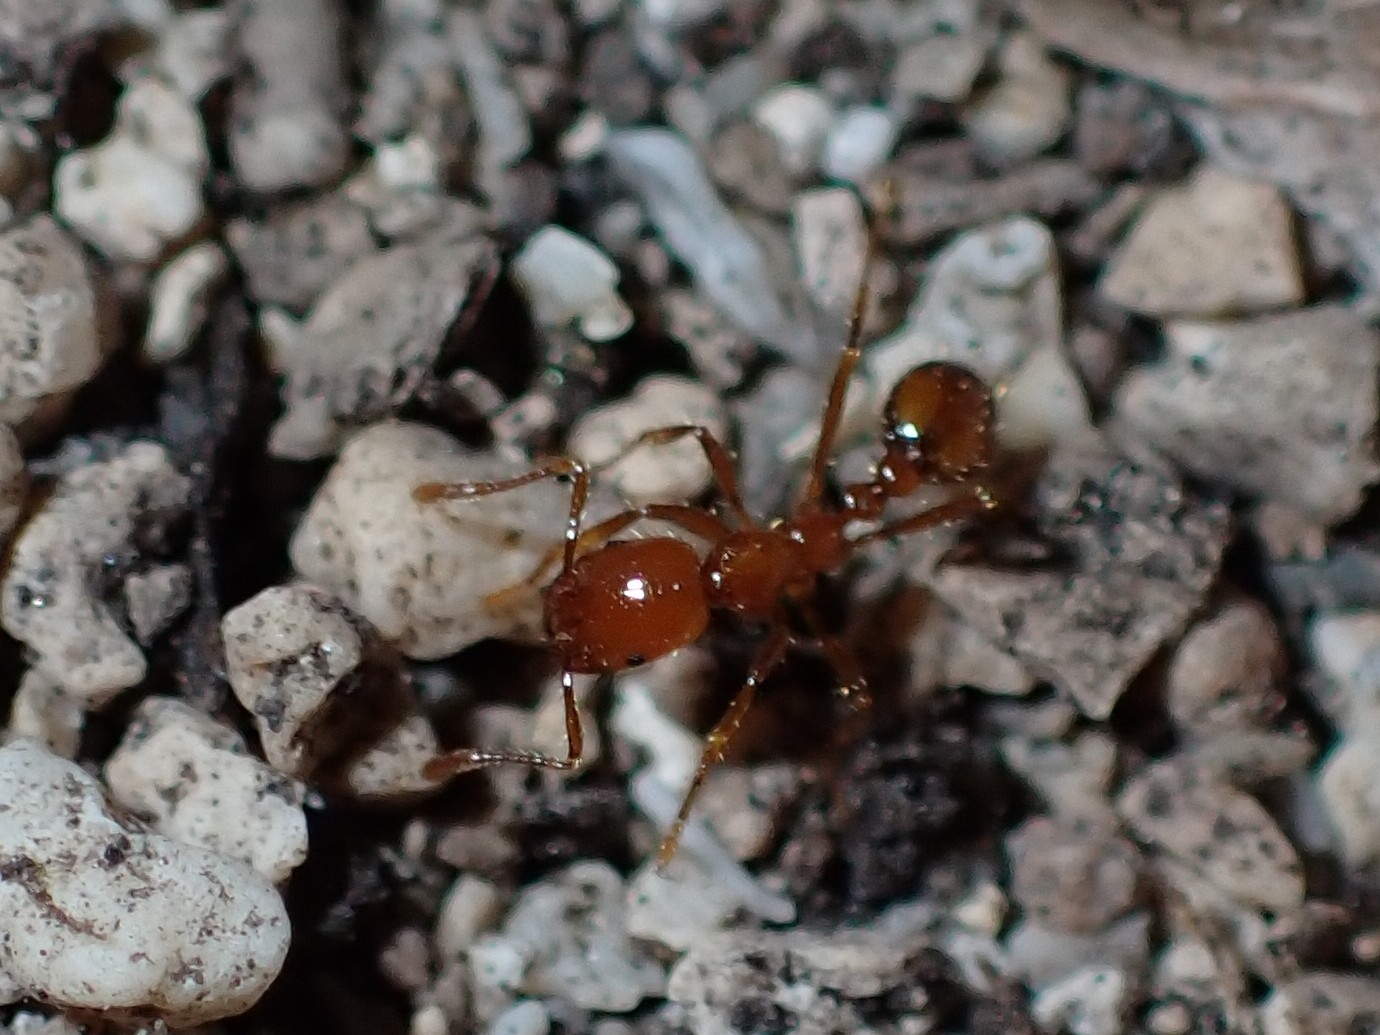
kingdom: Animalia
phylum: Arthropoda
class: Insecta
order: Hymenoptera
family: Formicidae
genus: Solenopsis
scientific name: Solenopsis geminata
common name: Tropical fire ant
